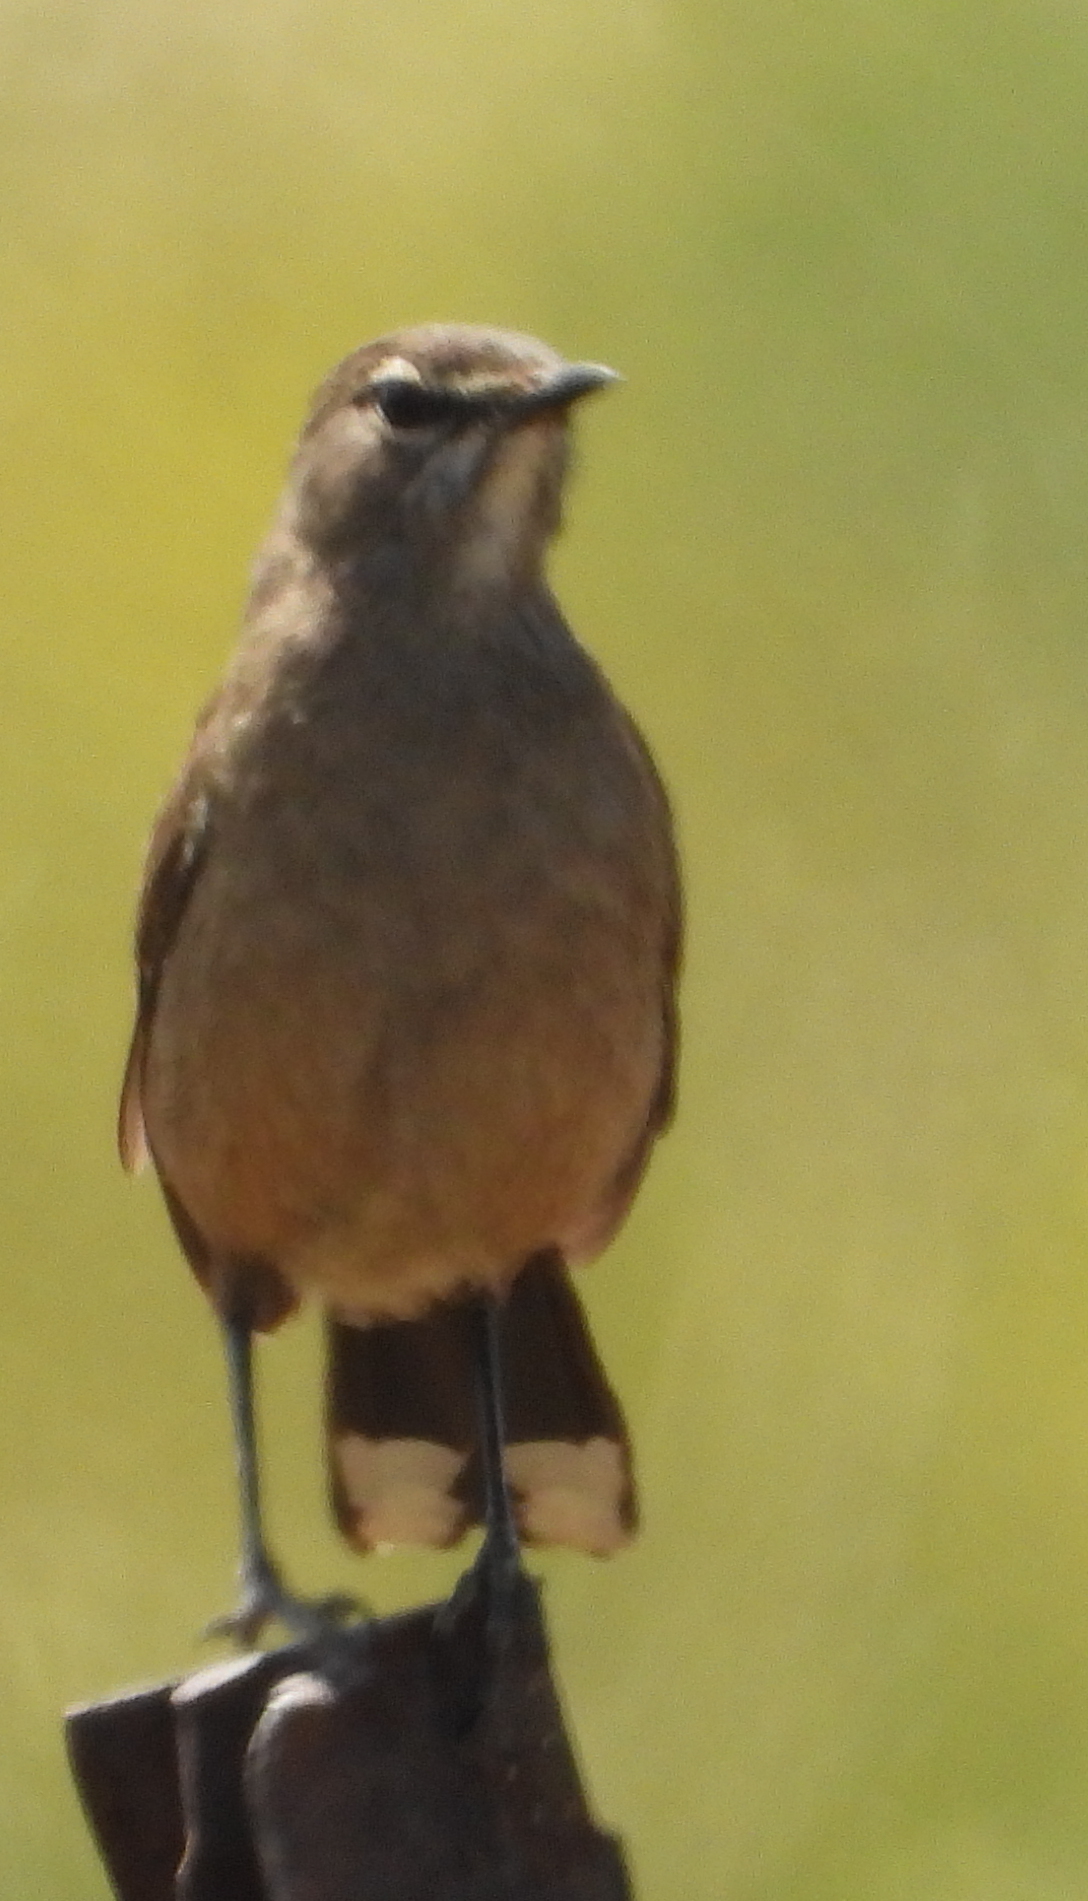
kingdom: Animalia
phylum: Chordata
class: Aves
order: Passeriformes
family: Muscicapidae
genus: Erythropygia
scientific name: Erythropygia coryphoeus
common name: Karoo scrub robin
